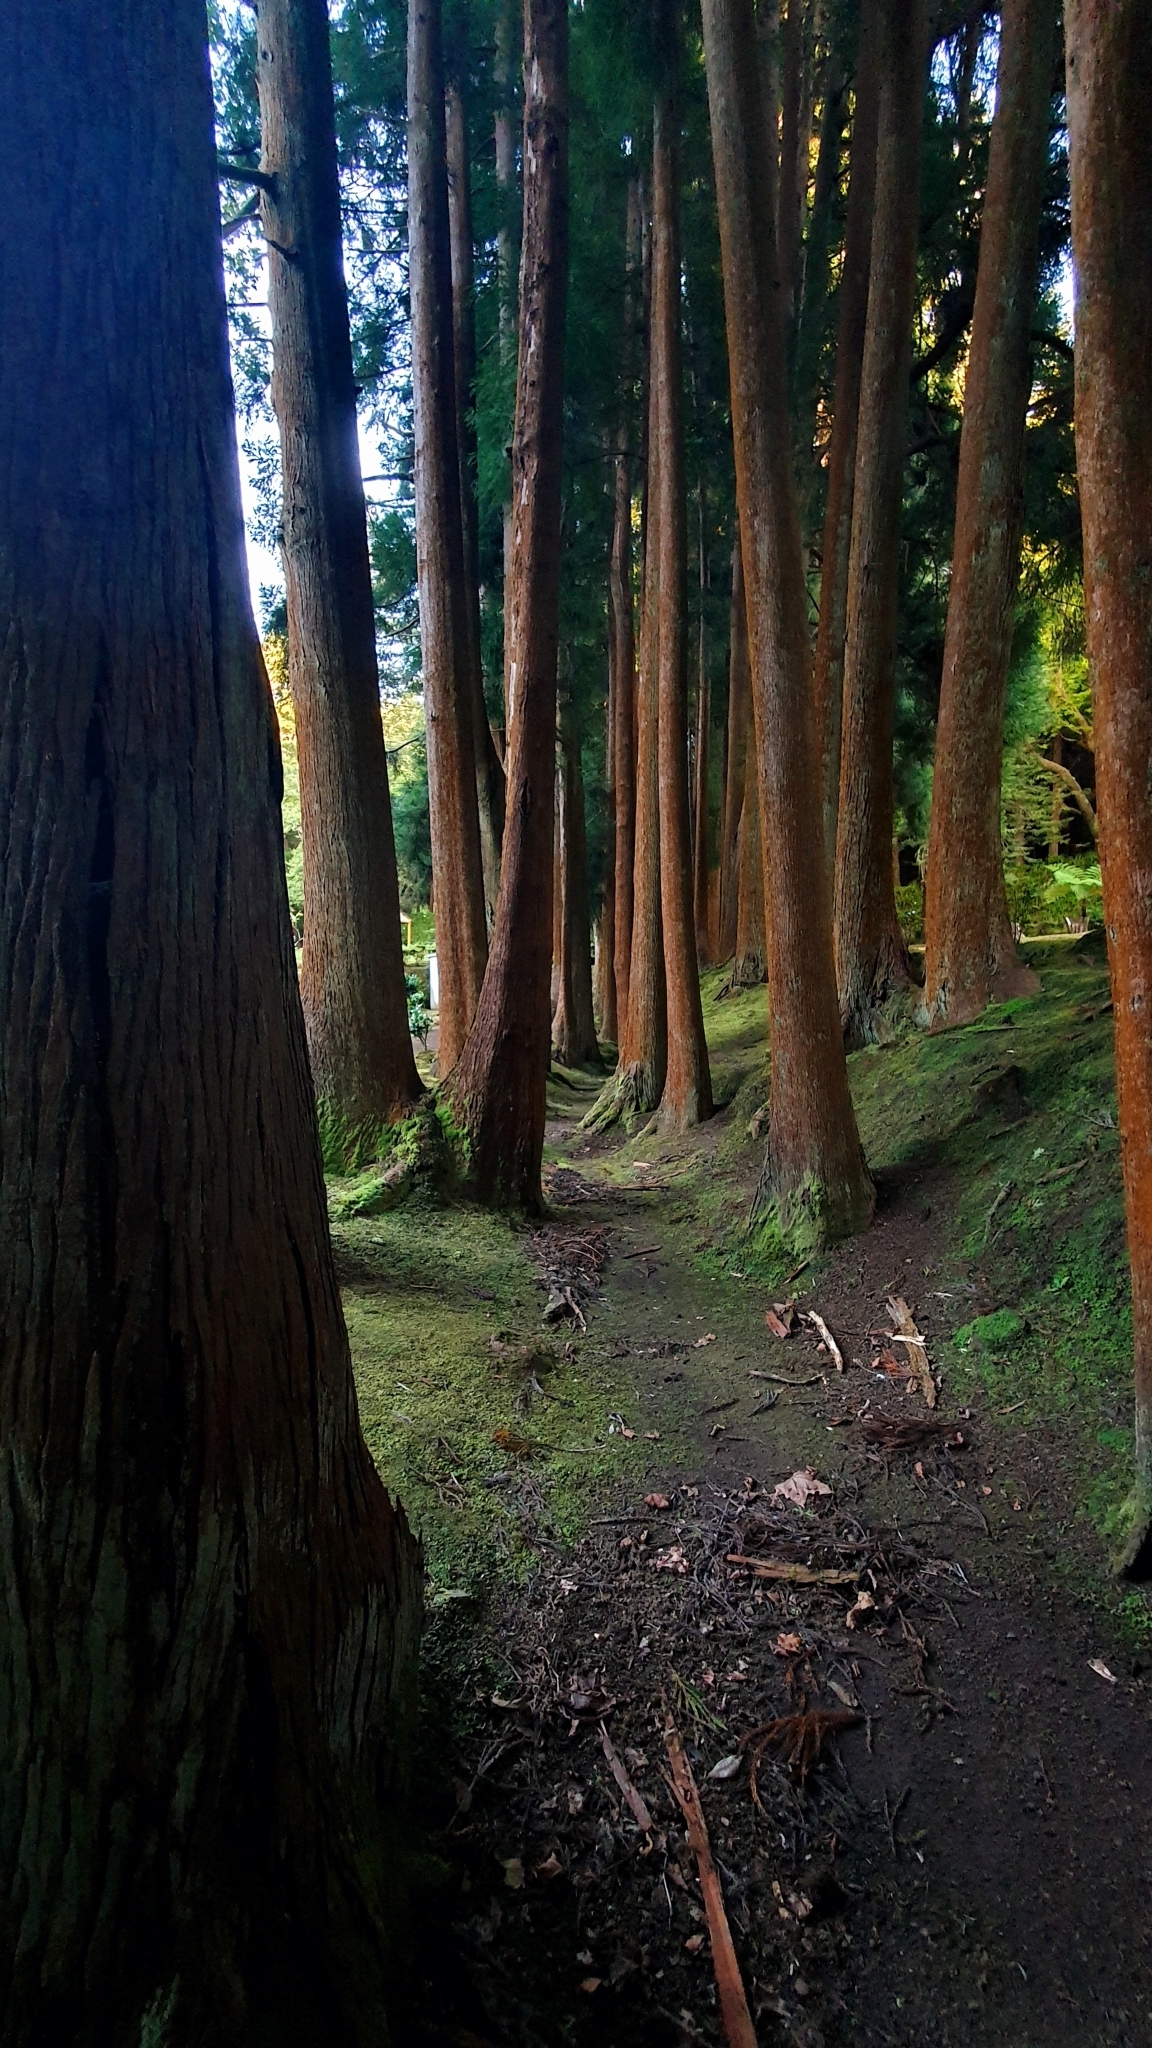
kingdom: Plantae
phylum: Tracheophyta
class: Pinopsida
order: Pinales
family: Cupressaceae
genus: Cryptomeria
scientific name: Cryptomeria japonica
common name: Japanese cedar
